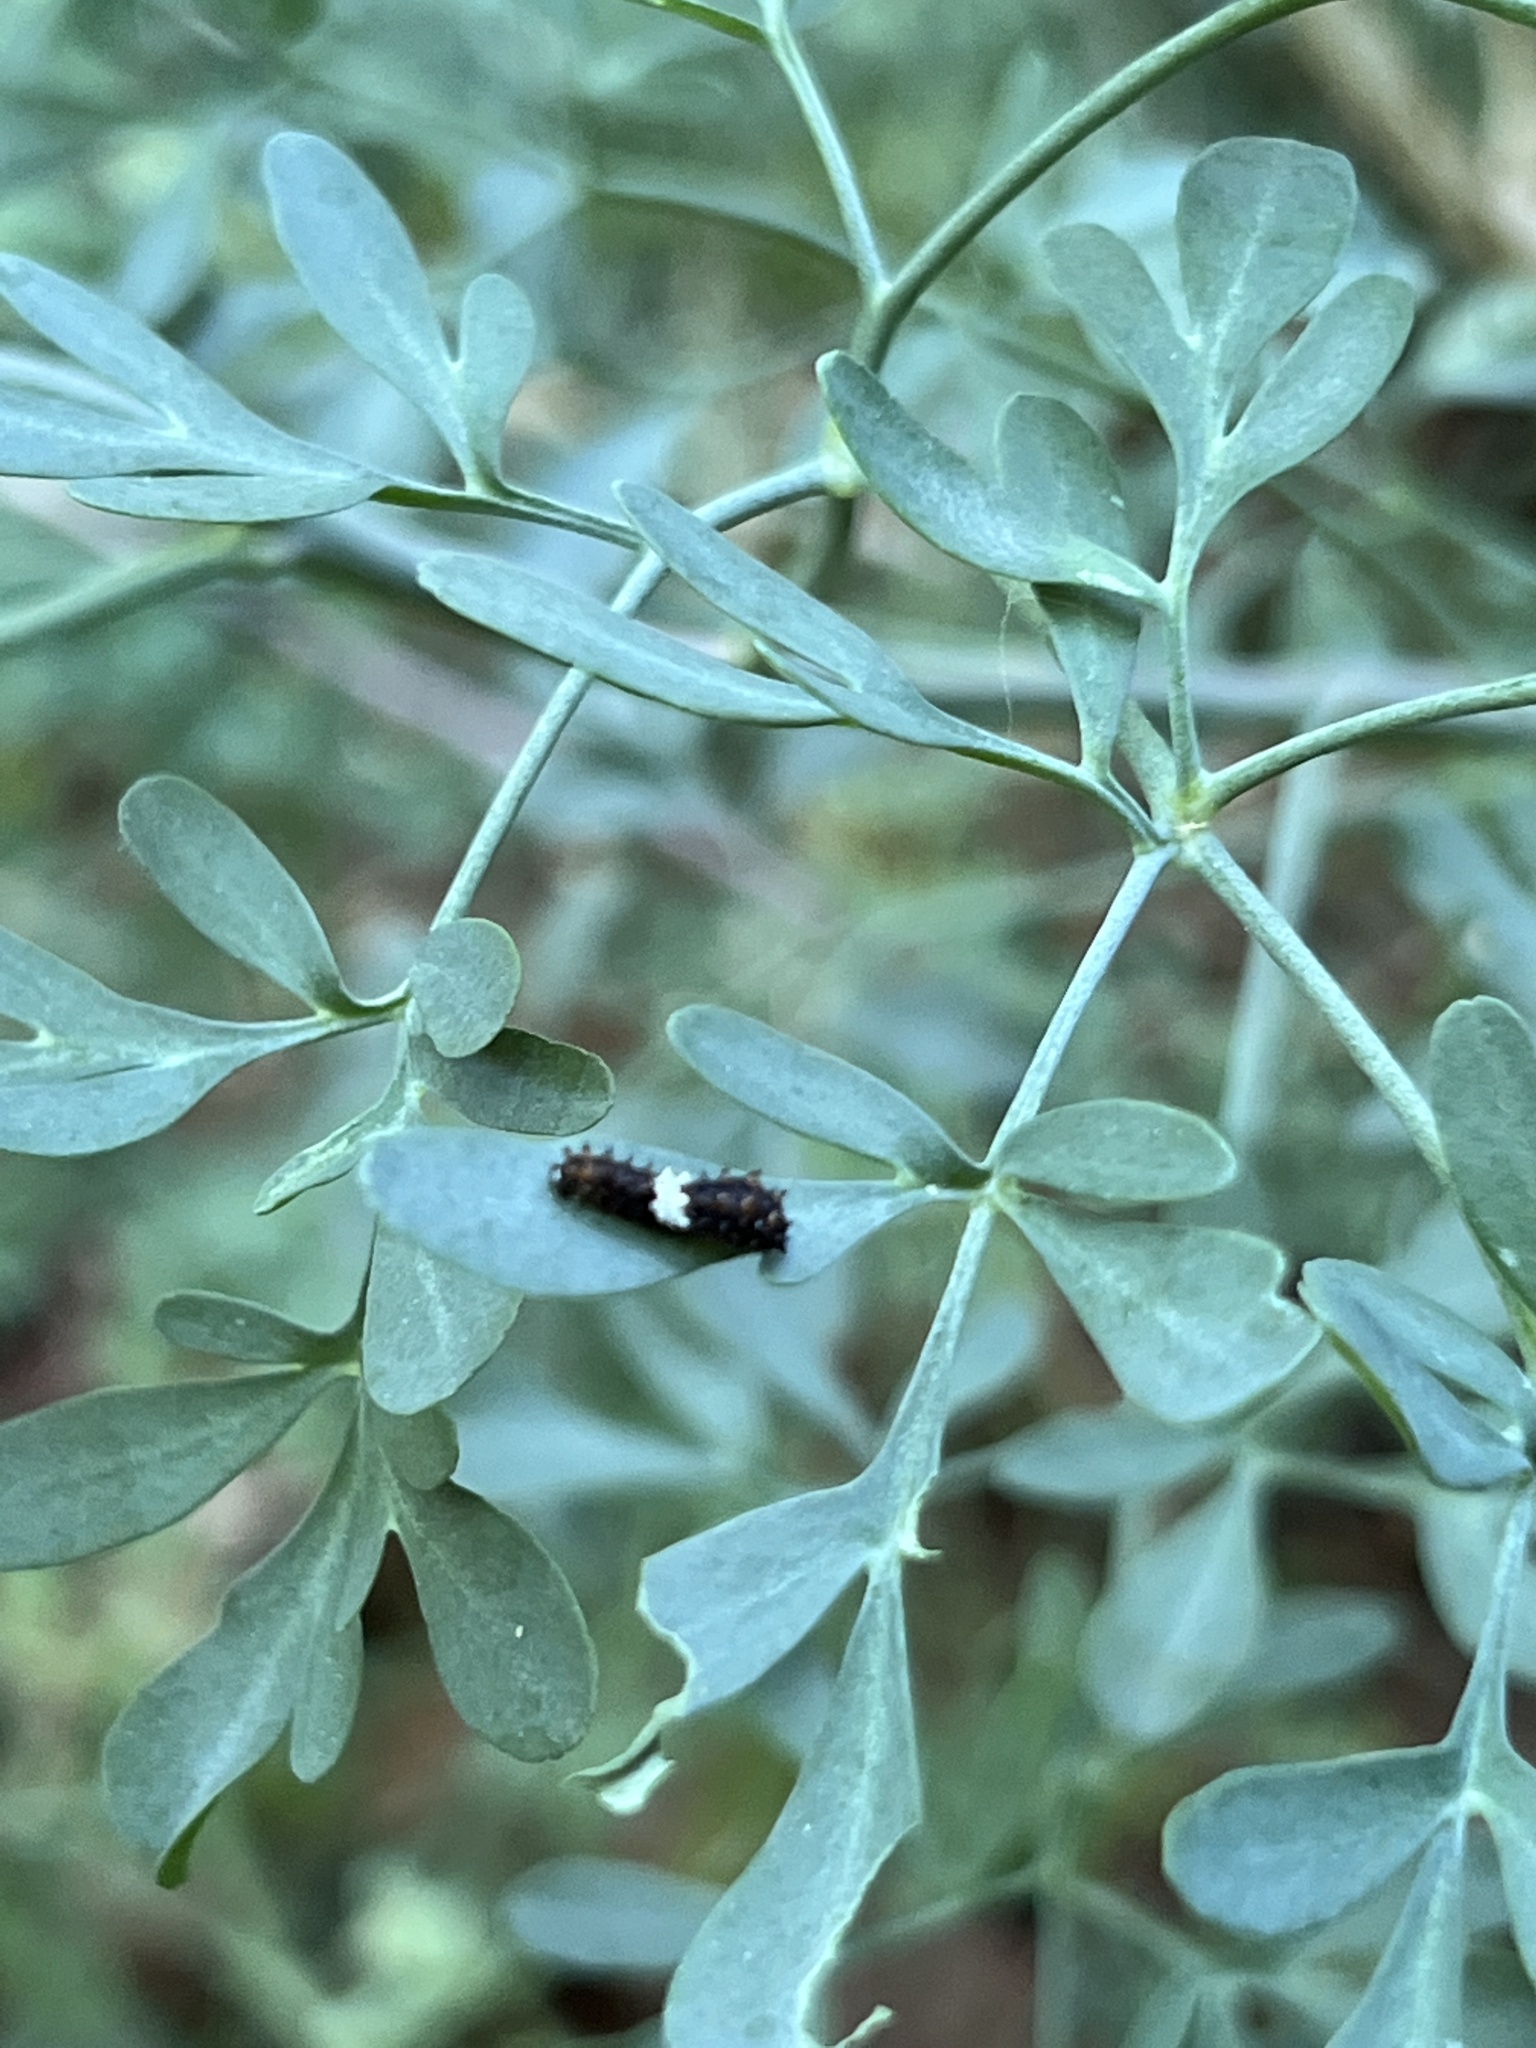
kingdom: Animalia
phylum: Arthropoda
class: Insecta
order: Lepidoptera
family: Papilionidae
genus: Papilio
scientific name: Papilio polyxenes
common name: Black swallowtail
